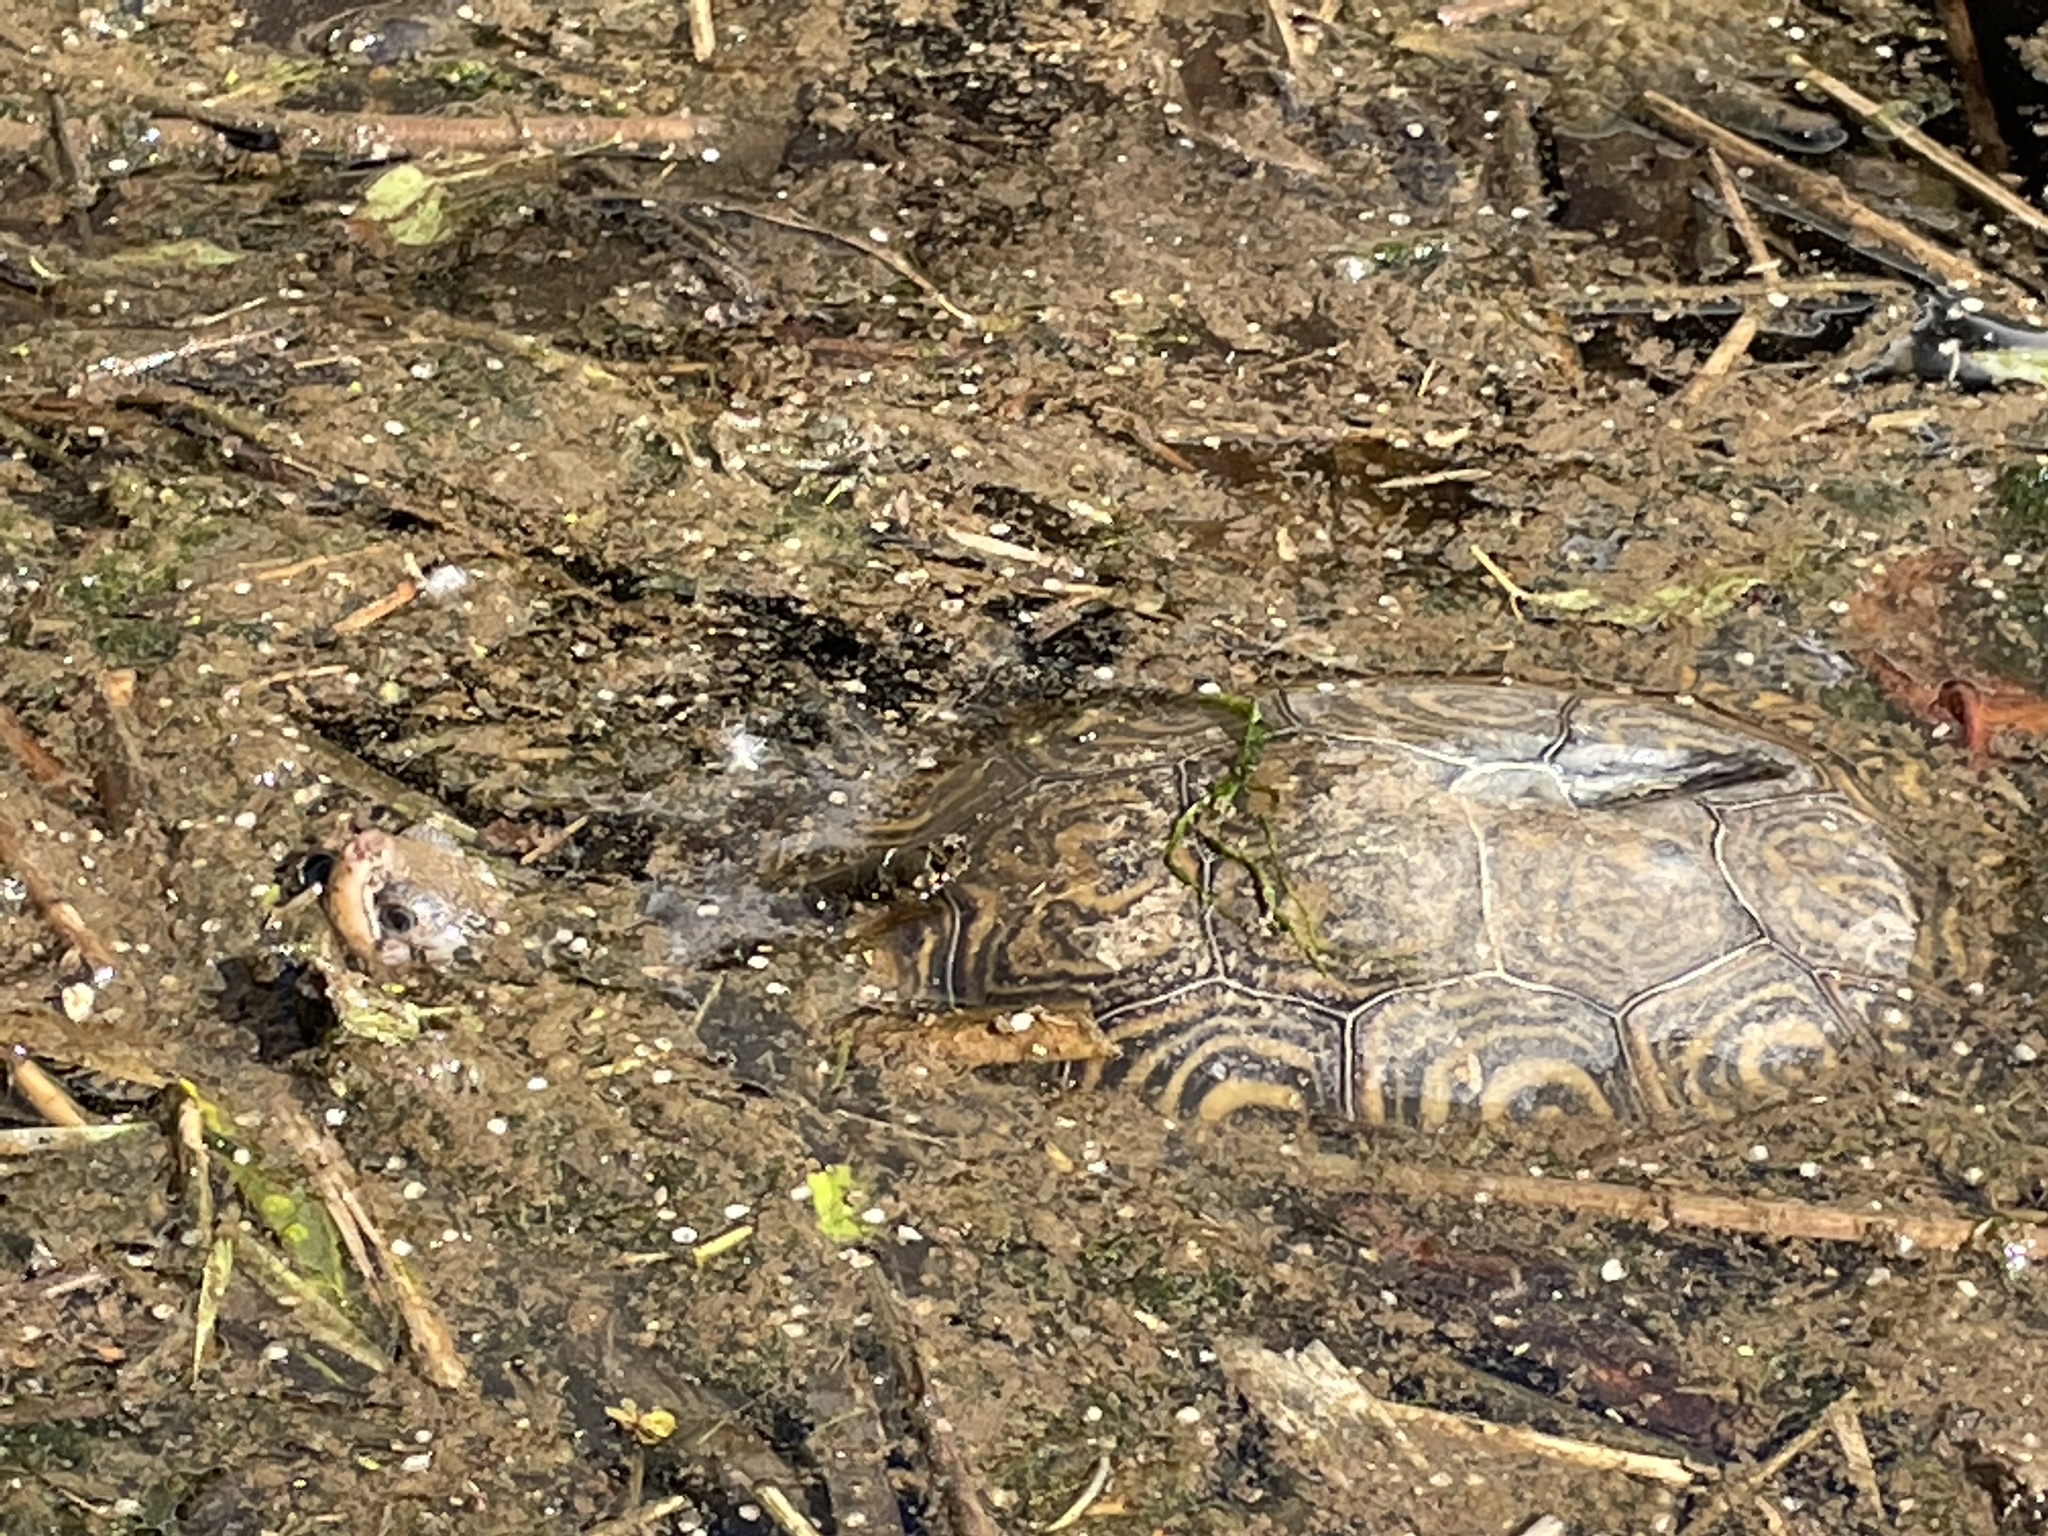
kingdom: Animalia
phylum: Chordata
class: Testudines
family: Emydidae
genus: Malaclemys
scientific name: Malaclemys terrapin
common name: Diamondback terrapin
